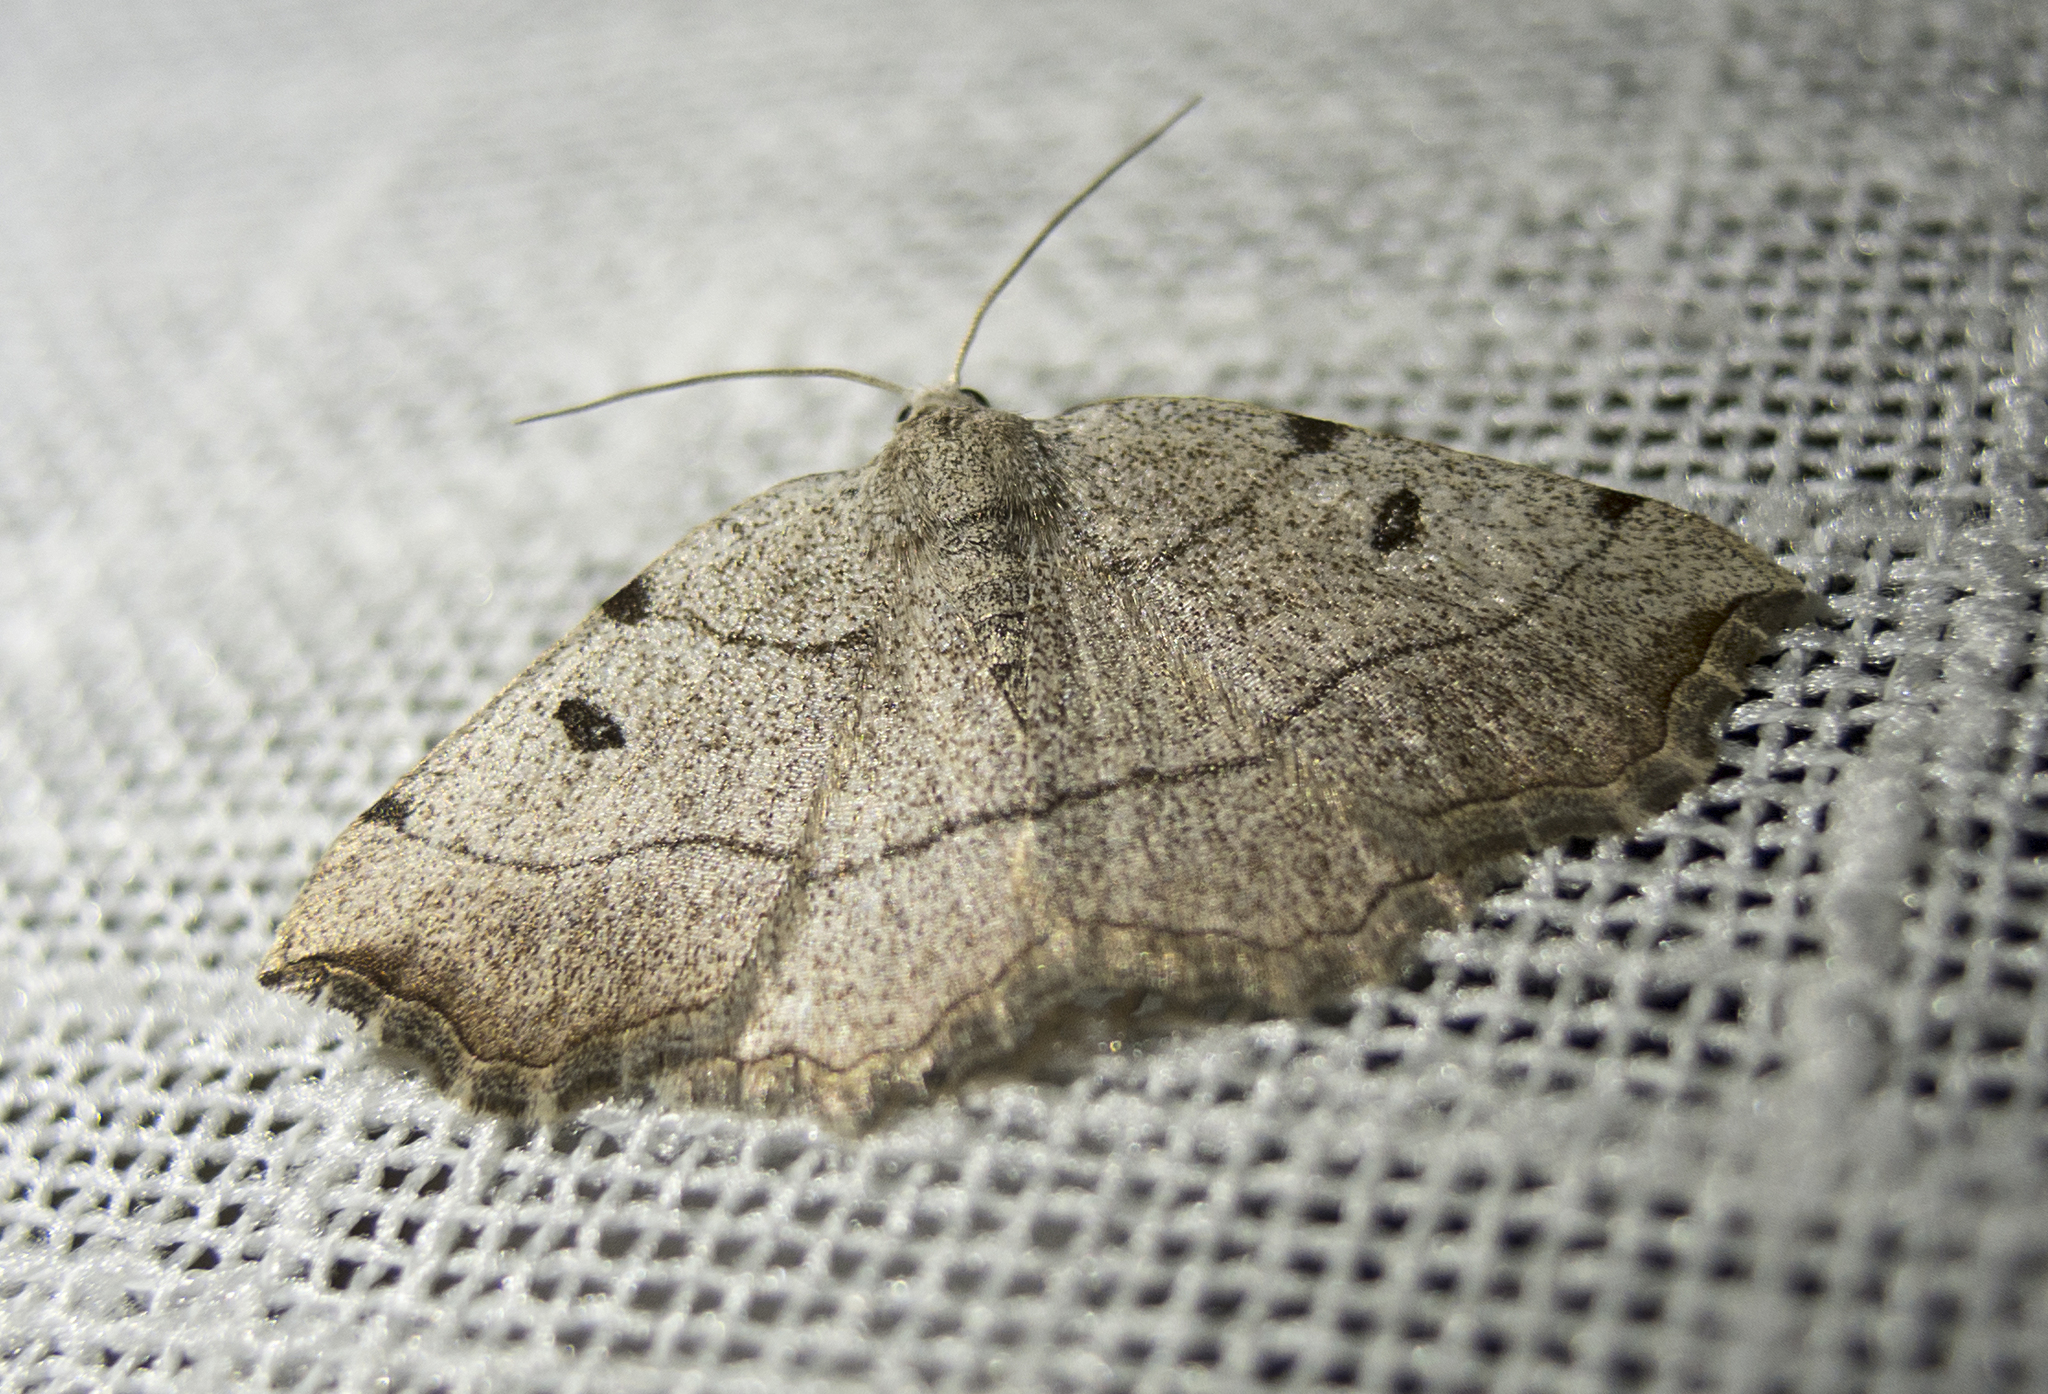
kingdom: Animalia
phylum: Arthropoda
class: Insecta
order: Lepidoptera
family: Geometridae
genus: Eilicrinia
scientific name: Eilicrinia trinotata
